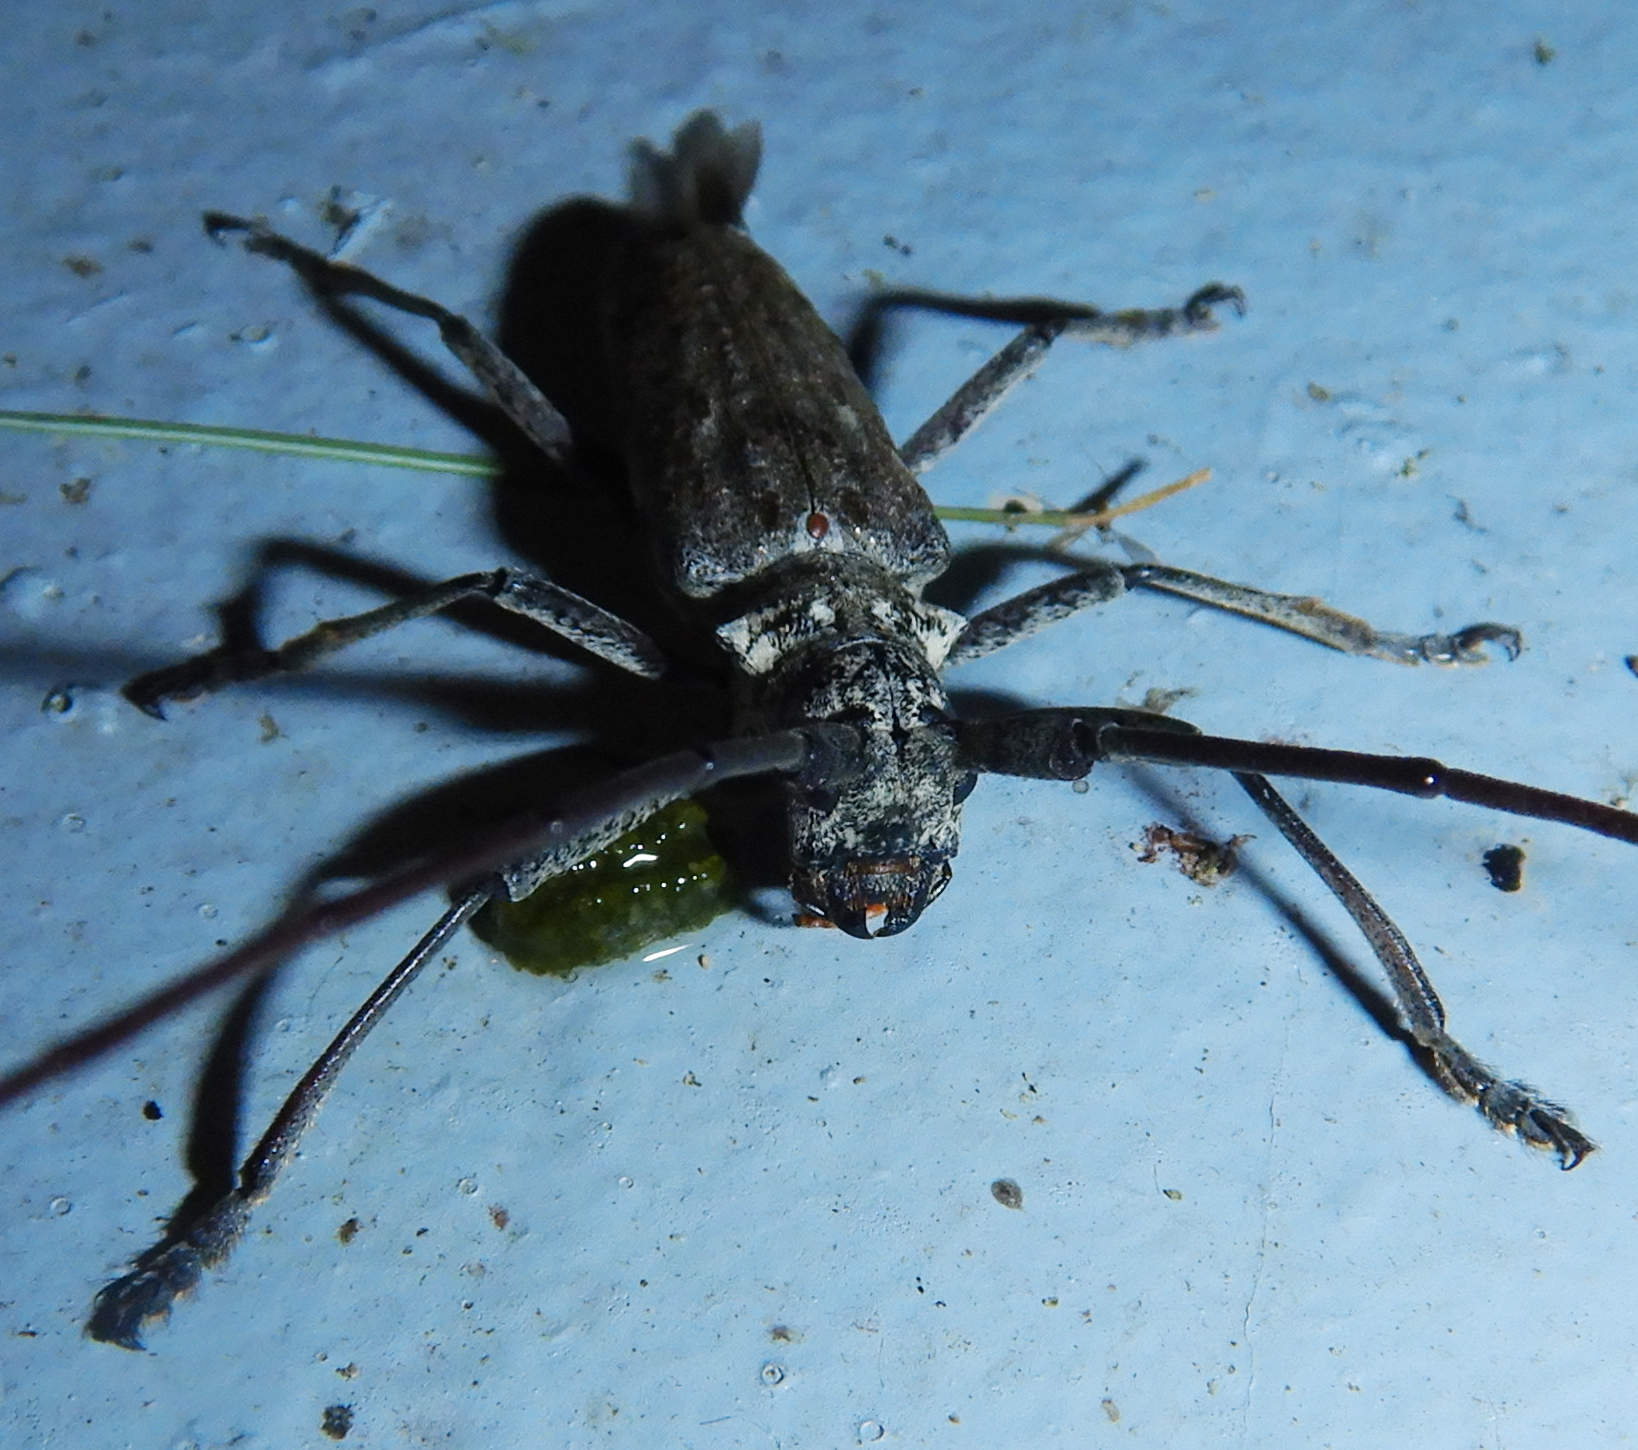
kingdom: Animalia
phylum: Arthropoda
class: Insecta
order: Coleoptera
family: Cerambycidae
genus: Monochamus
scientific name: Monochamus notatus
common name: Northeastern pine sawyer beetle
